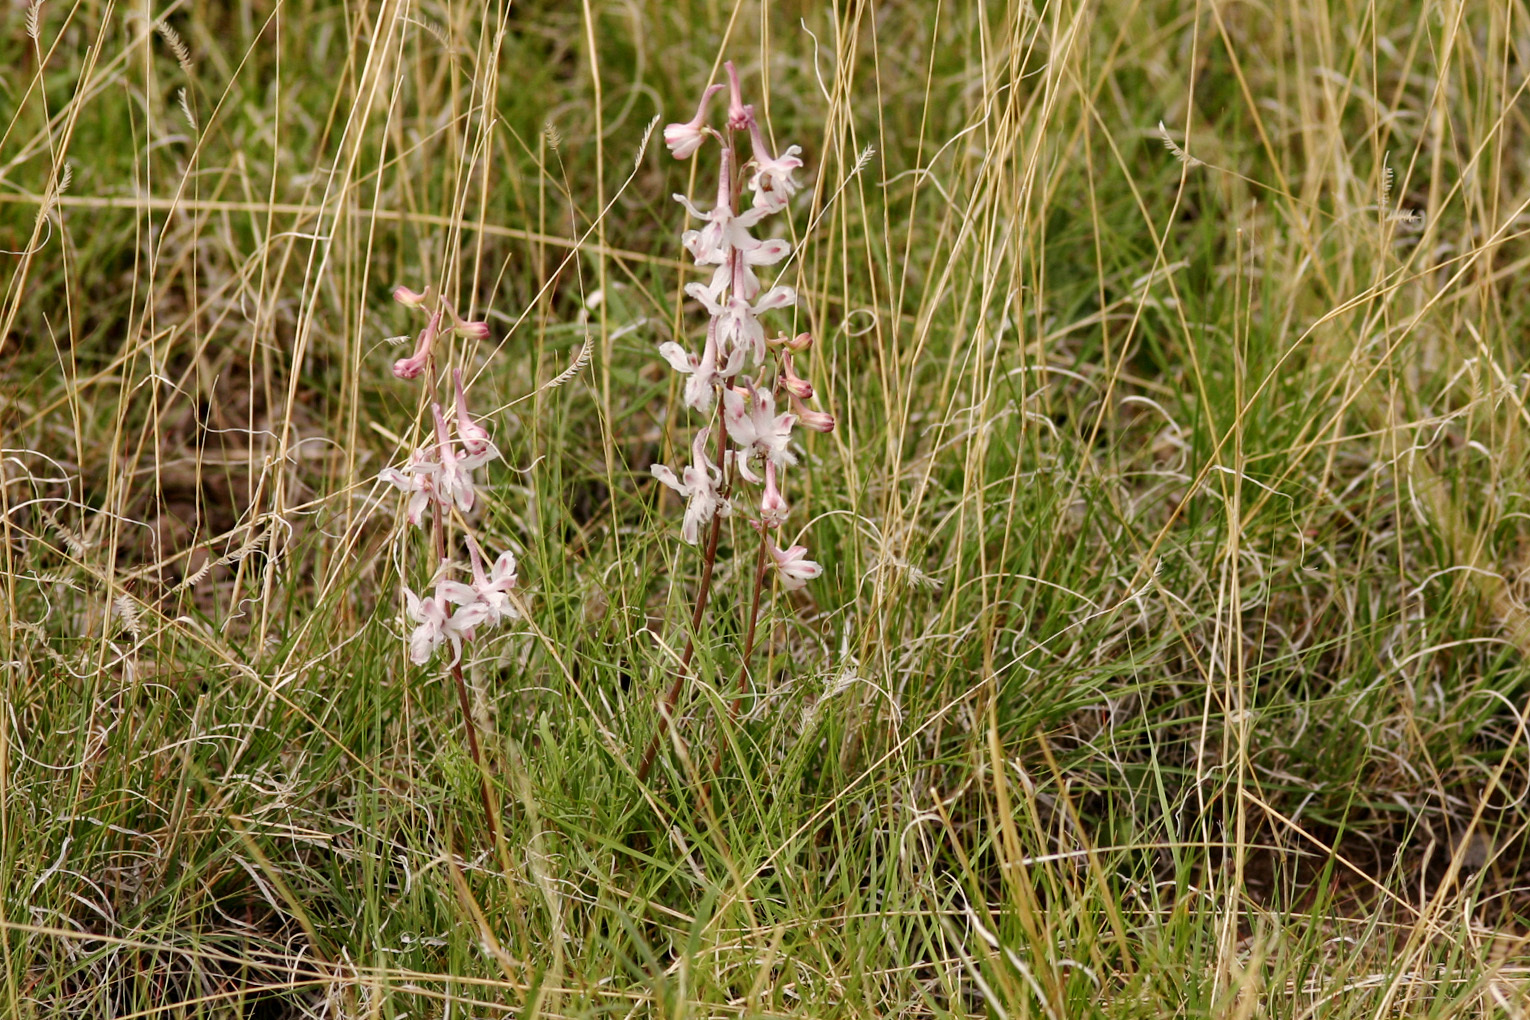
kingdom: Plantae
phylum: Tracheophyta
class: Magnoliopsida
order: Ranunculales
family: Ranunculaceae
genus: Delphinium
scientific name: Delphinium wootonii
